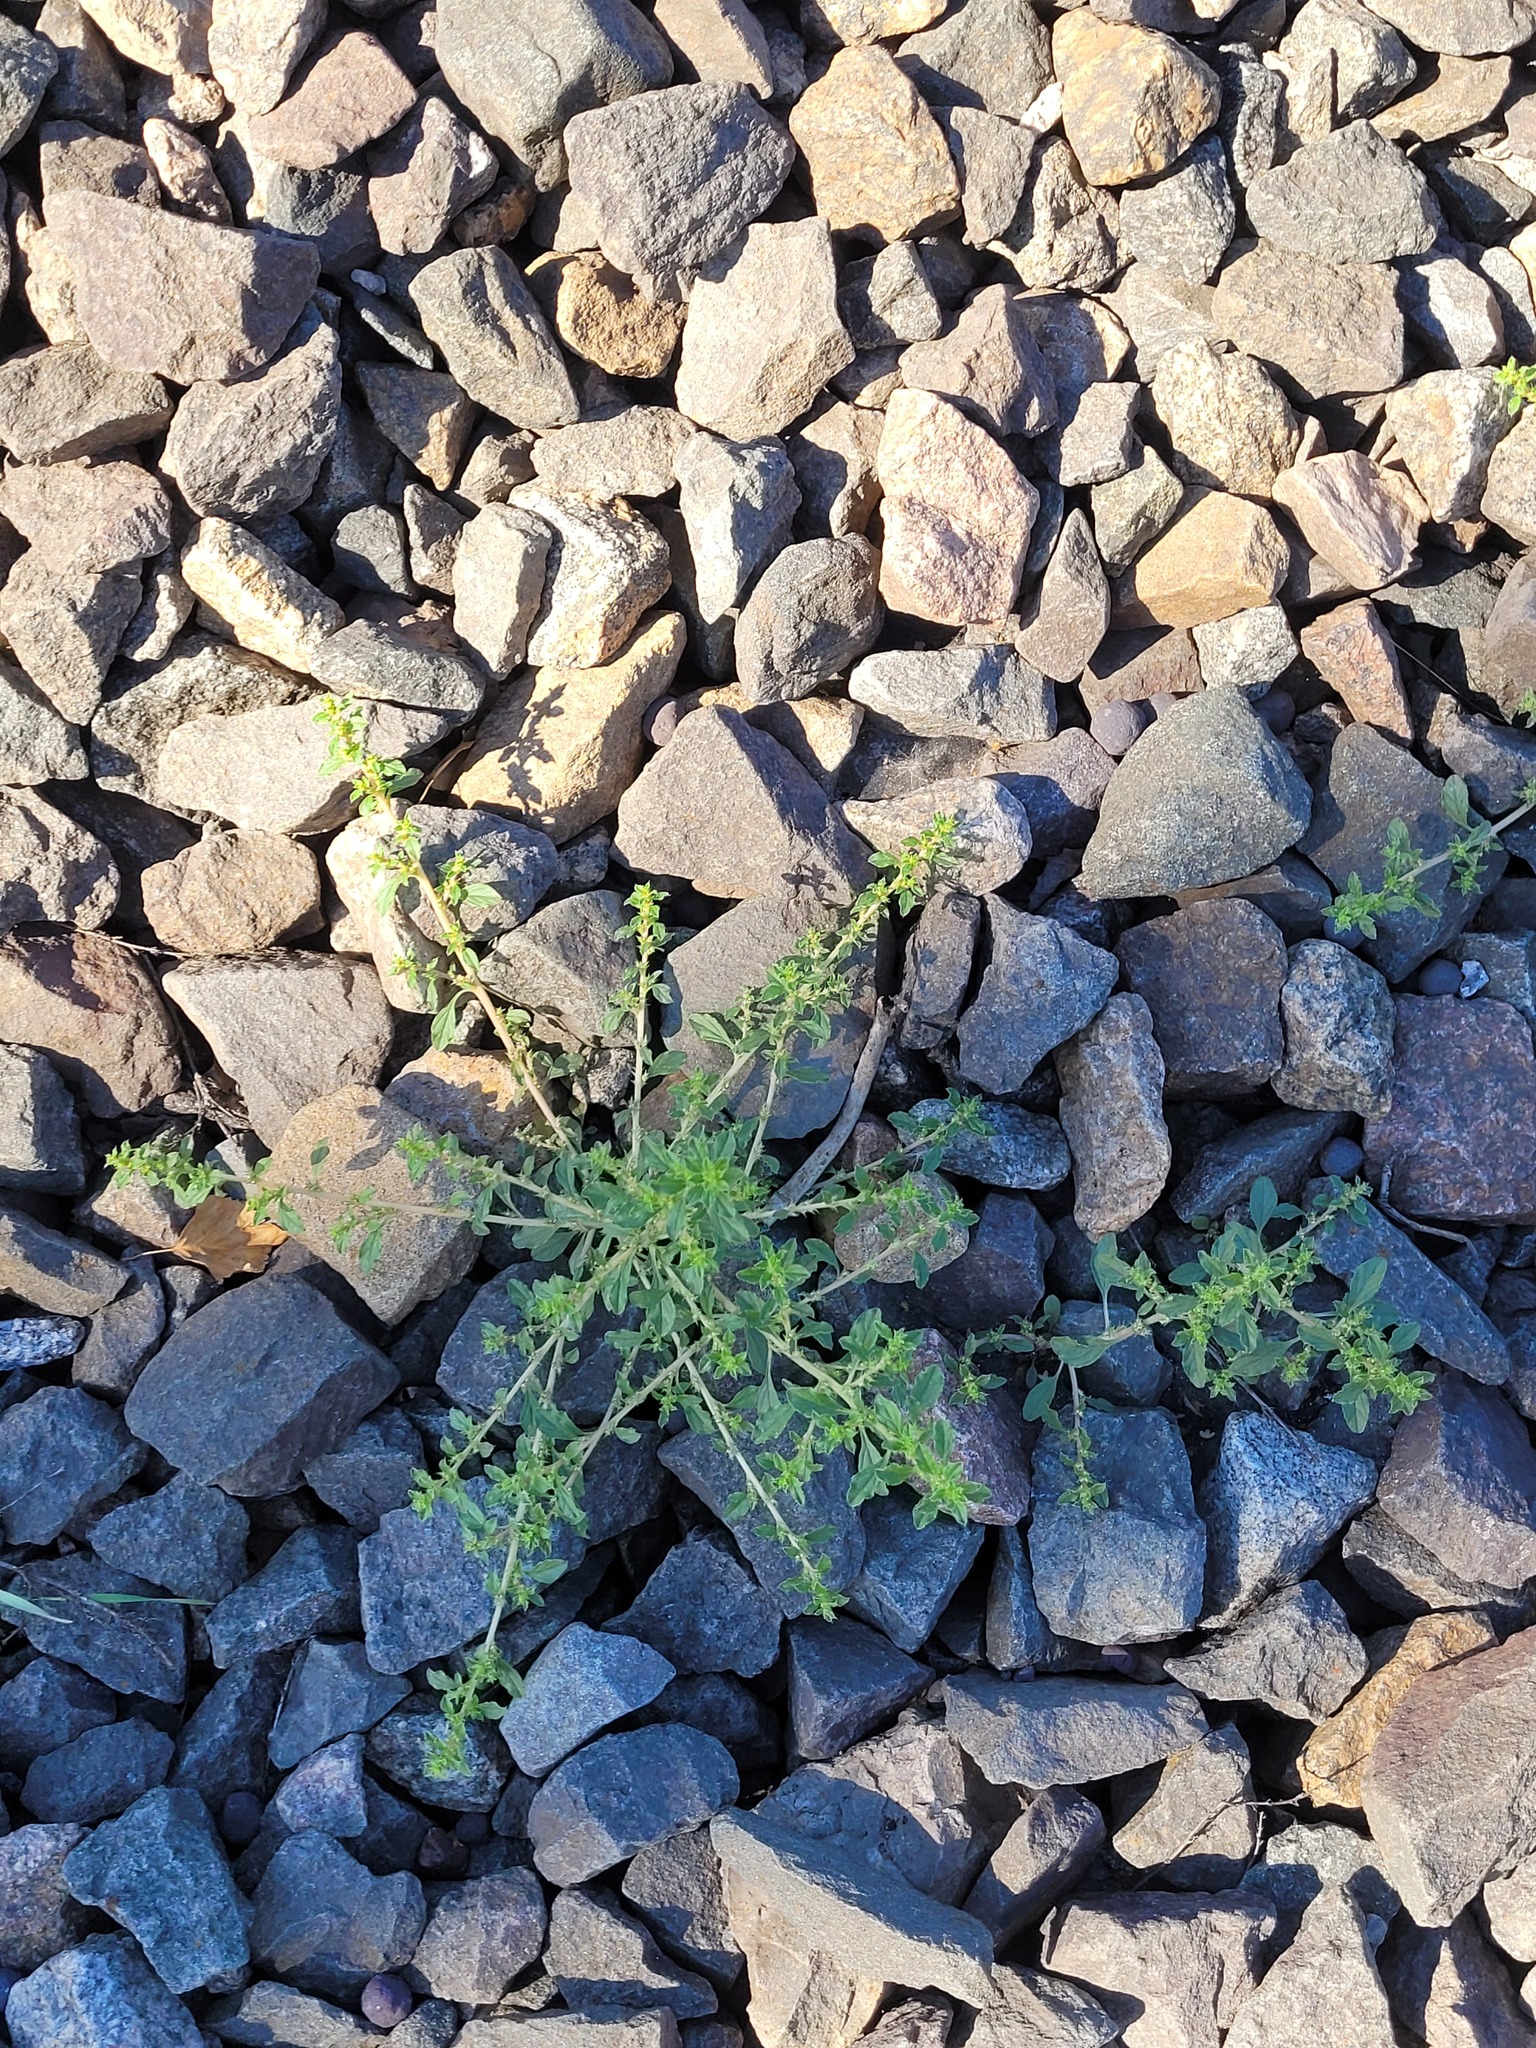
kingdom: Plantae
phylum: Tracheophyta
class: Magnoliopsida
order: Caryophyllales
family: Amaranthaceae
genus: Amaranthus
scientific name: Amaranthus albus
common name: White pigweed
